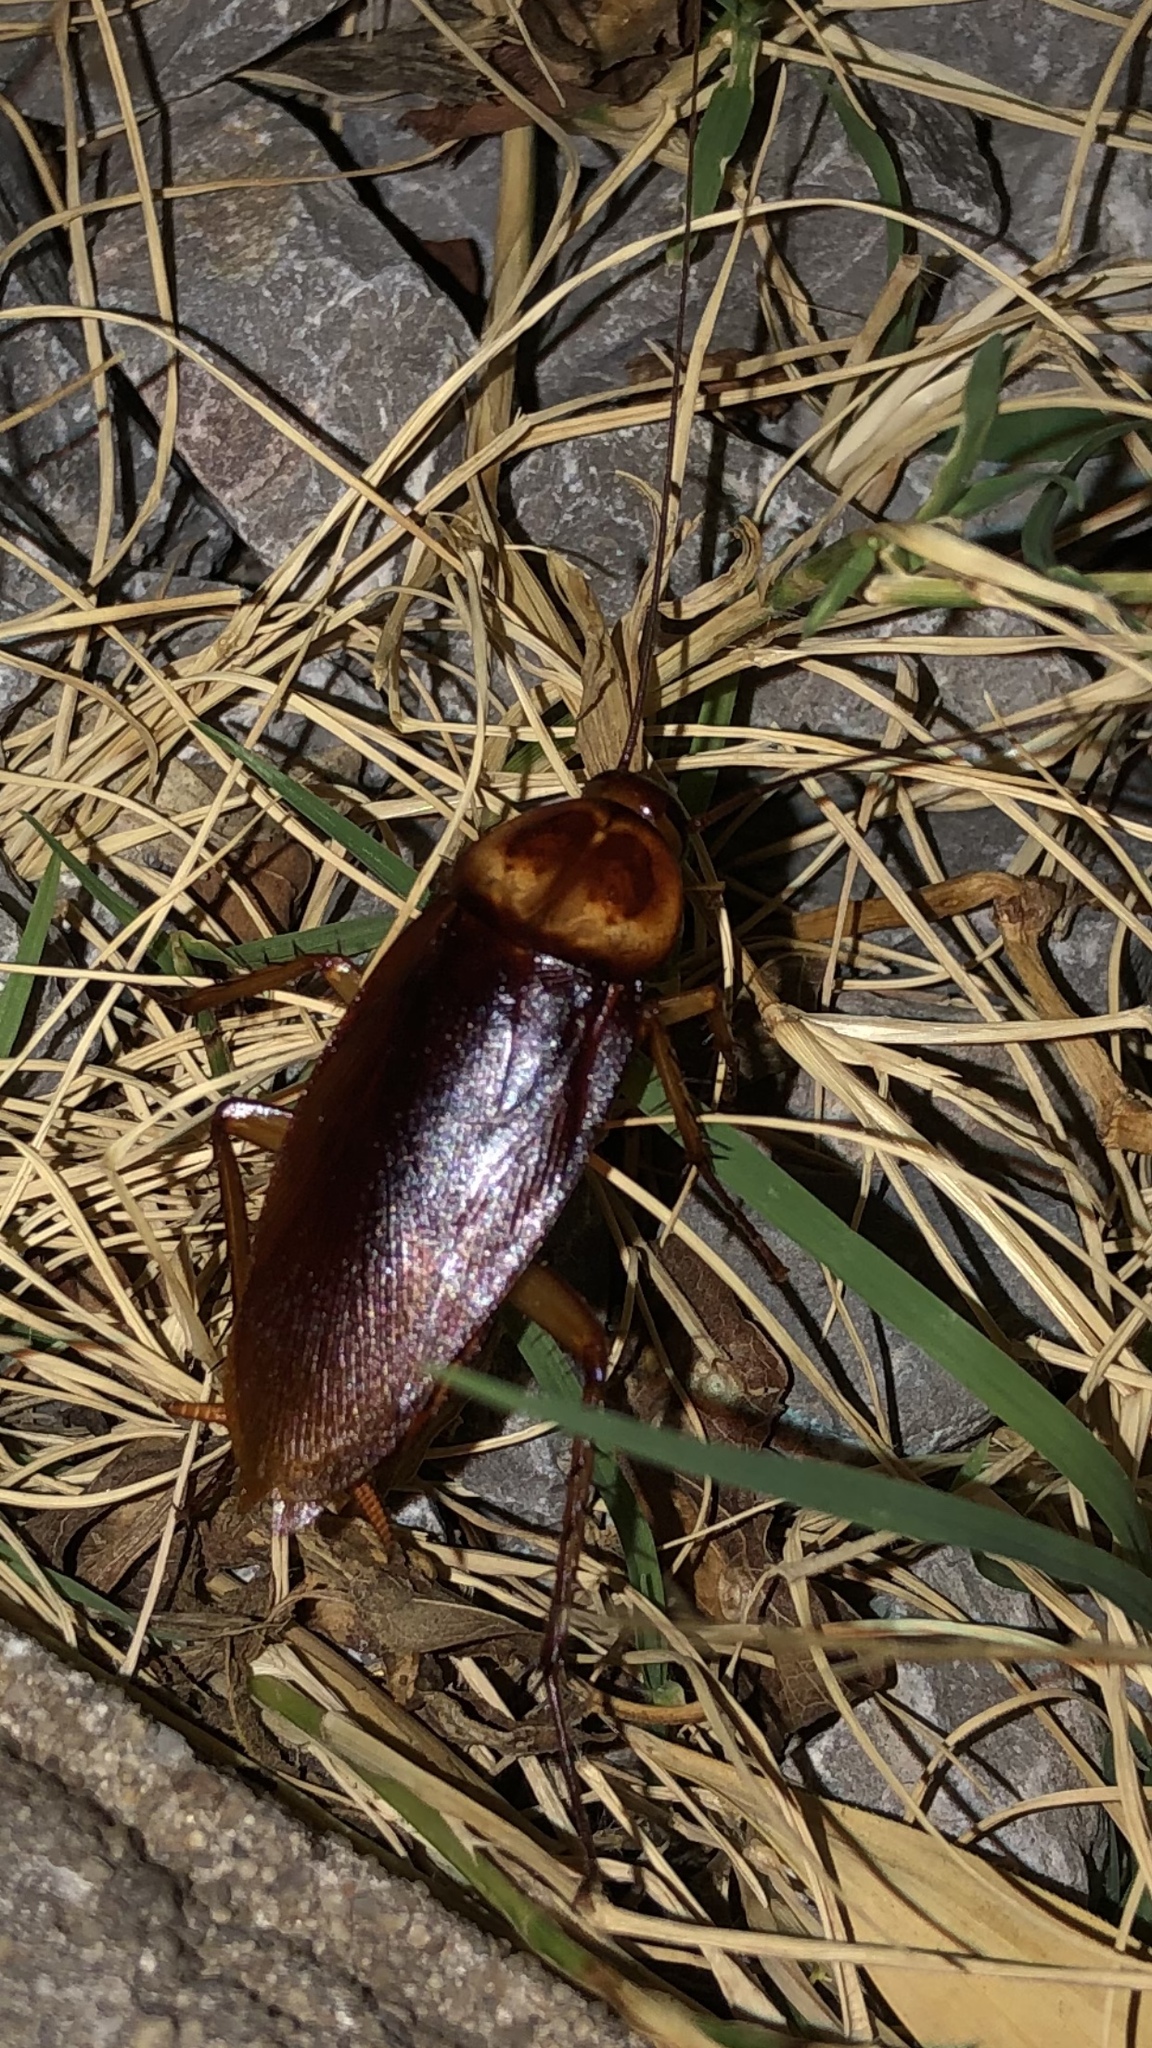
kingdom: Animalia
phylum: Arthropoda
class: Insecta
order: Blattodea
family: Blattidae
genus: Periplaneta
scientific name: Periplaneta americana
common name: American cockroach
